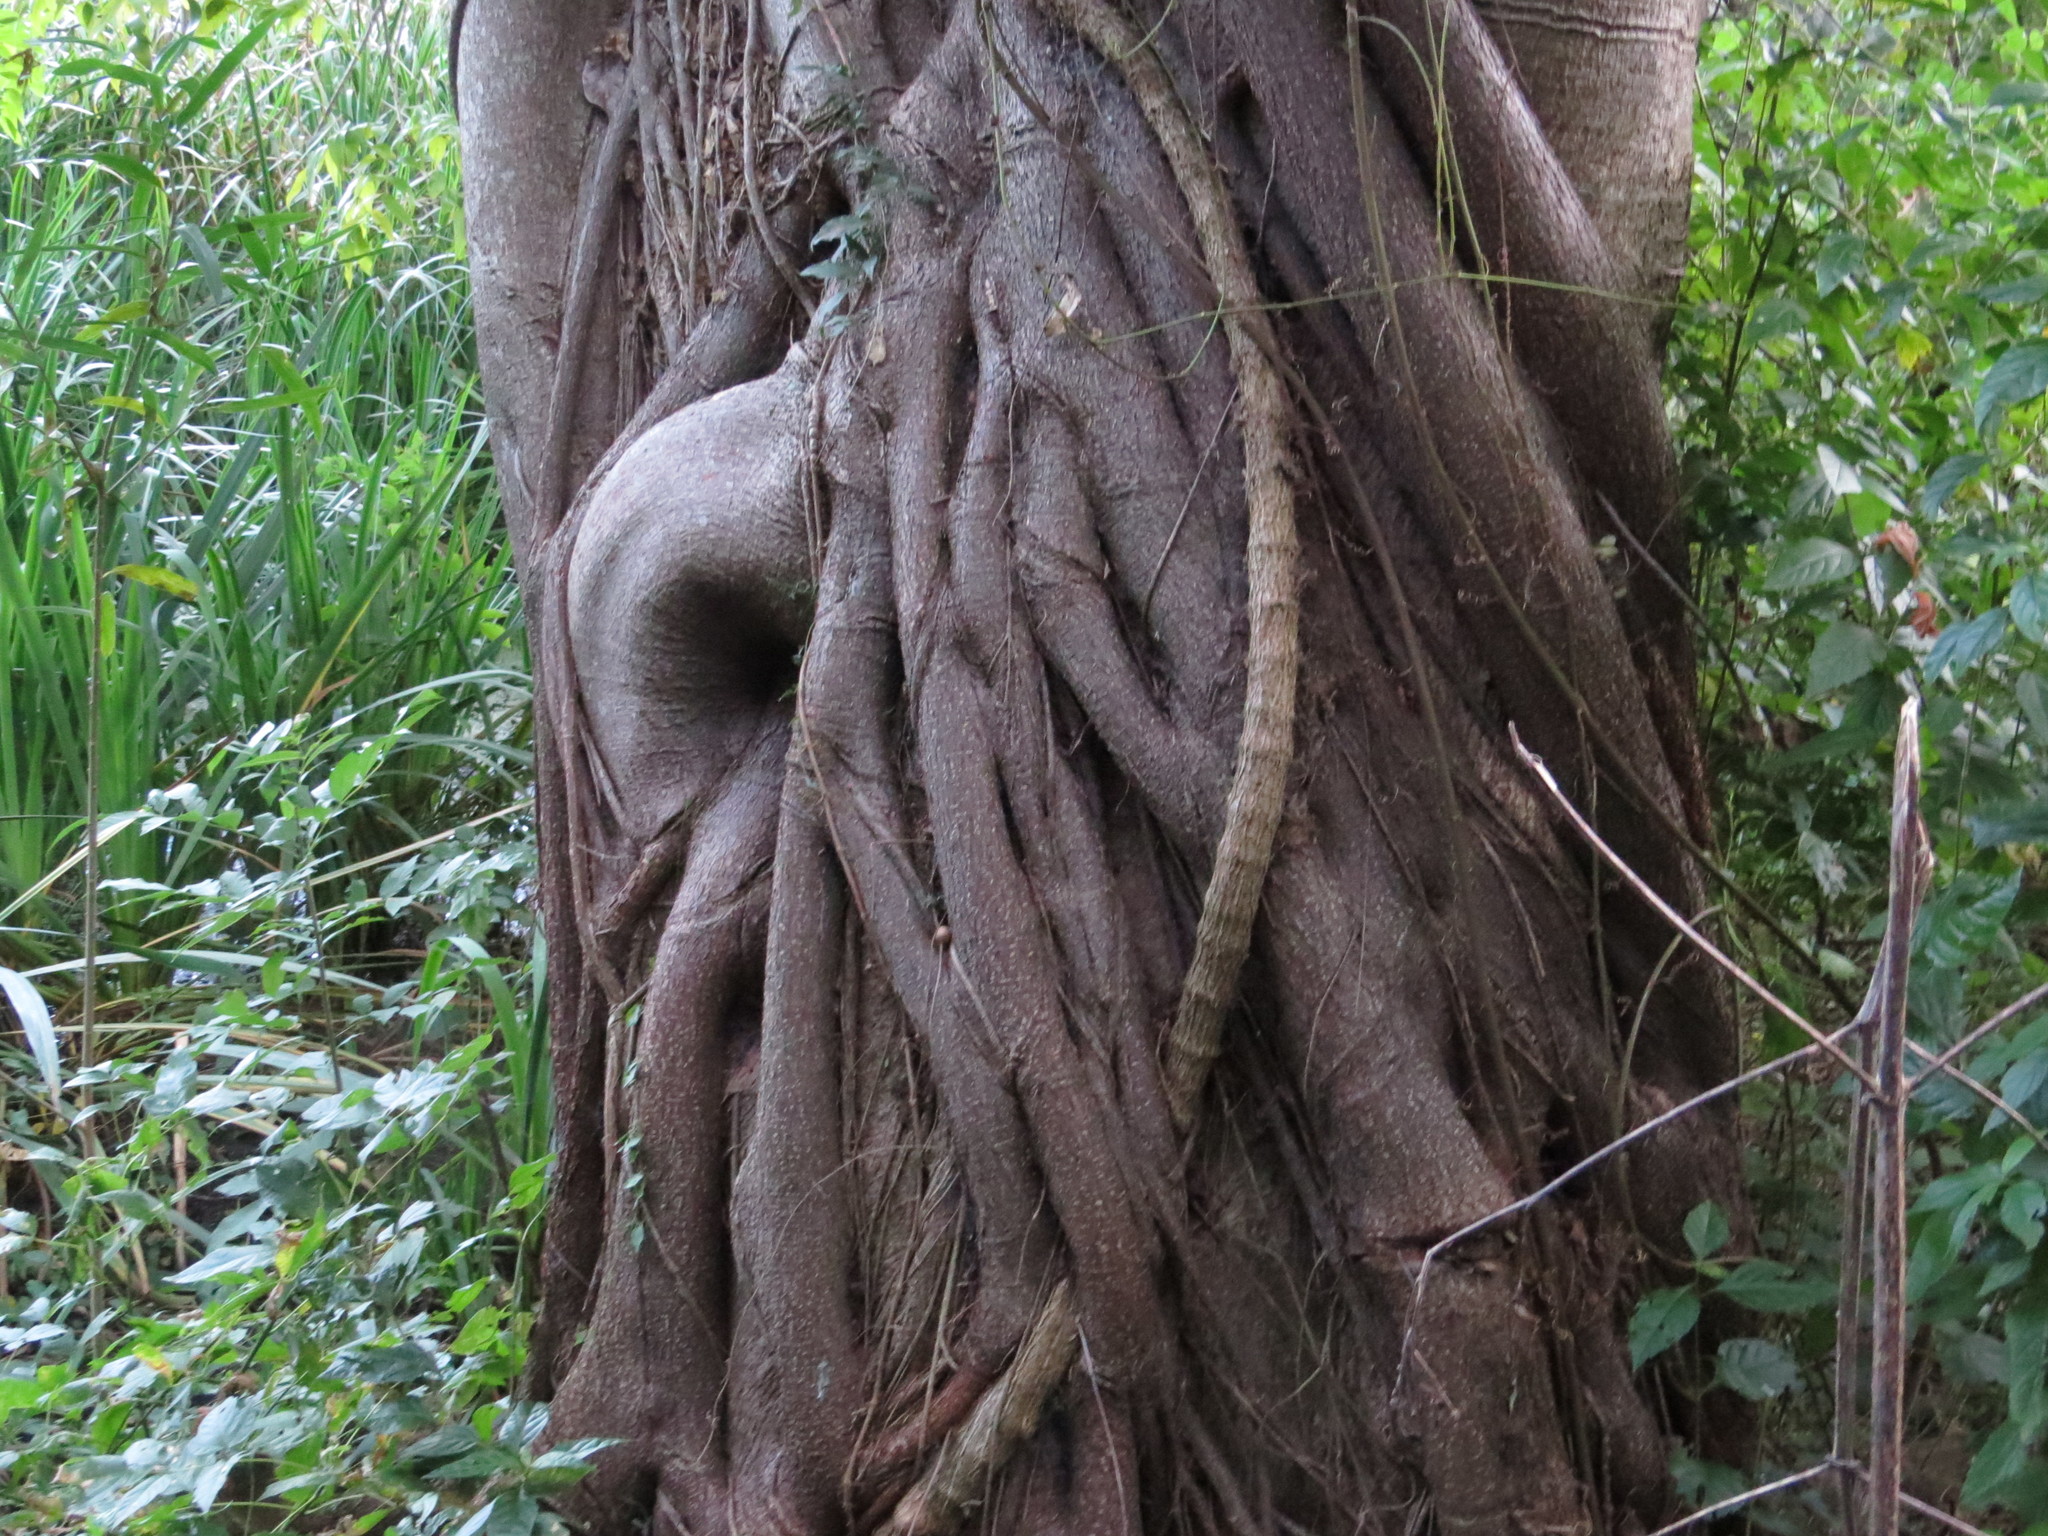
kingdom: Plantae
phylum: Tracheophyta
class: Magnoliopsida
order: Rosales
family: Moraceae
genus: Ficus
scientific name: Ficus luschnathiana
